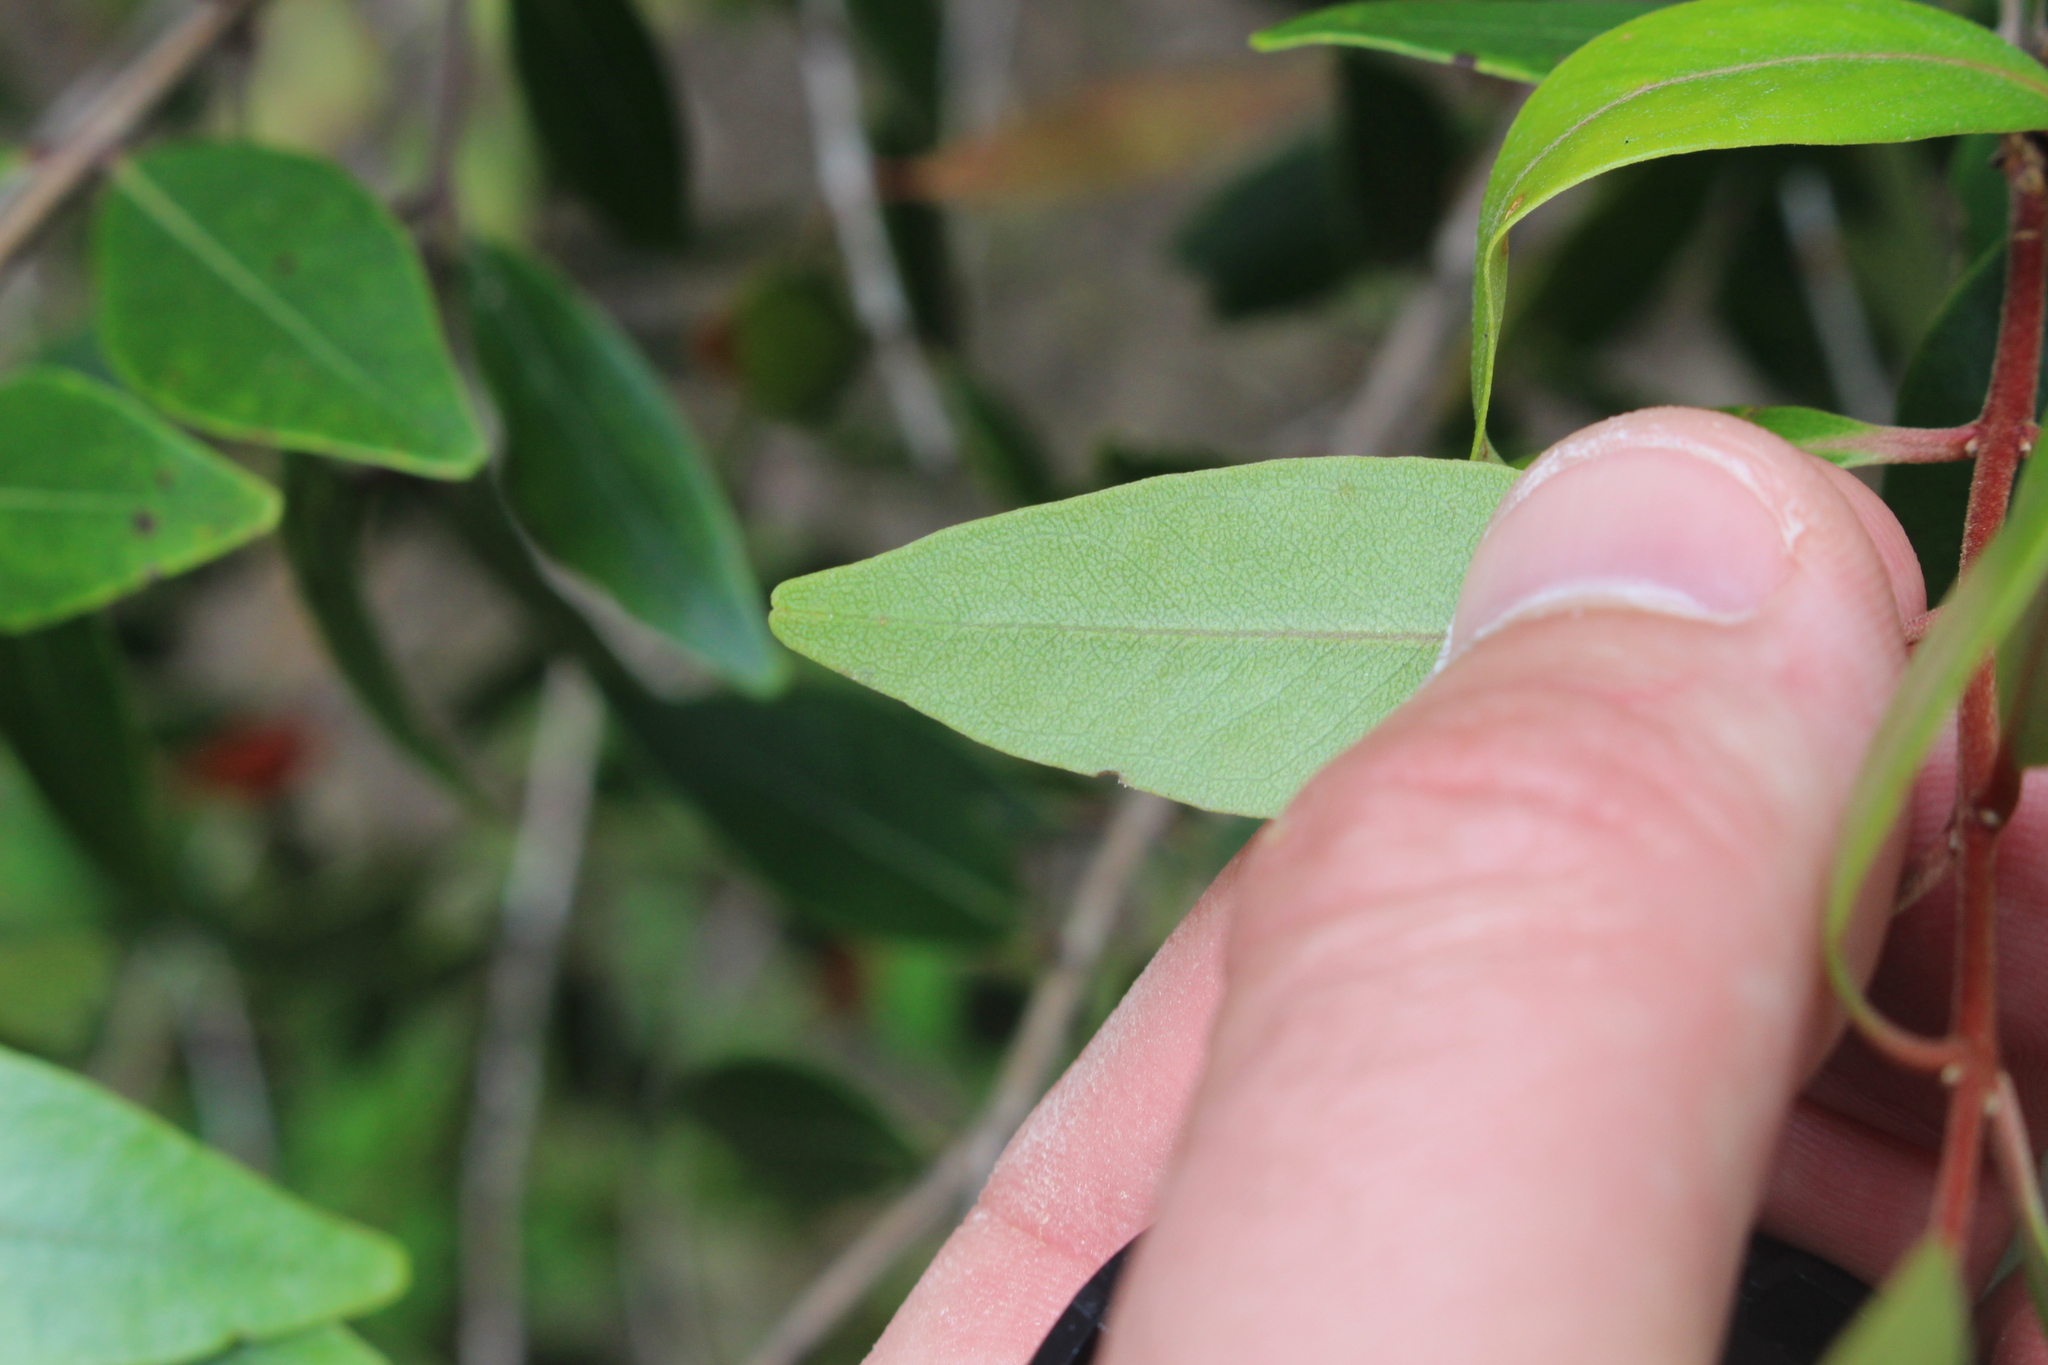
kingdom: Plantae
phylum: Tracheophyta
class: Magnoliopsida
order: Myrtales
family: Myrtaceae
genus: Metrosideros
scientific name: Metrosideros robusta
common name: Northern rata
